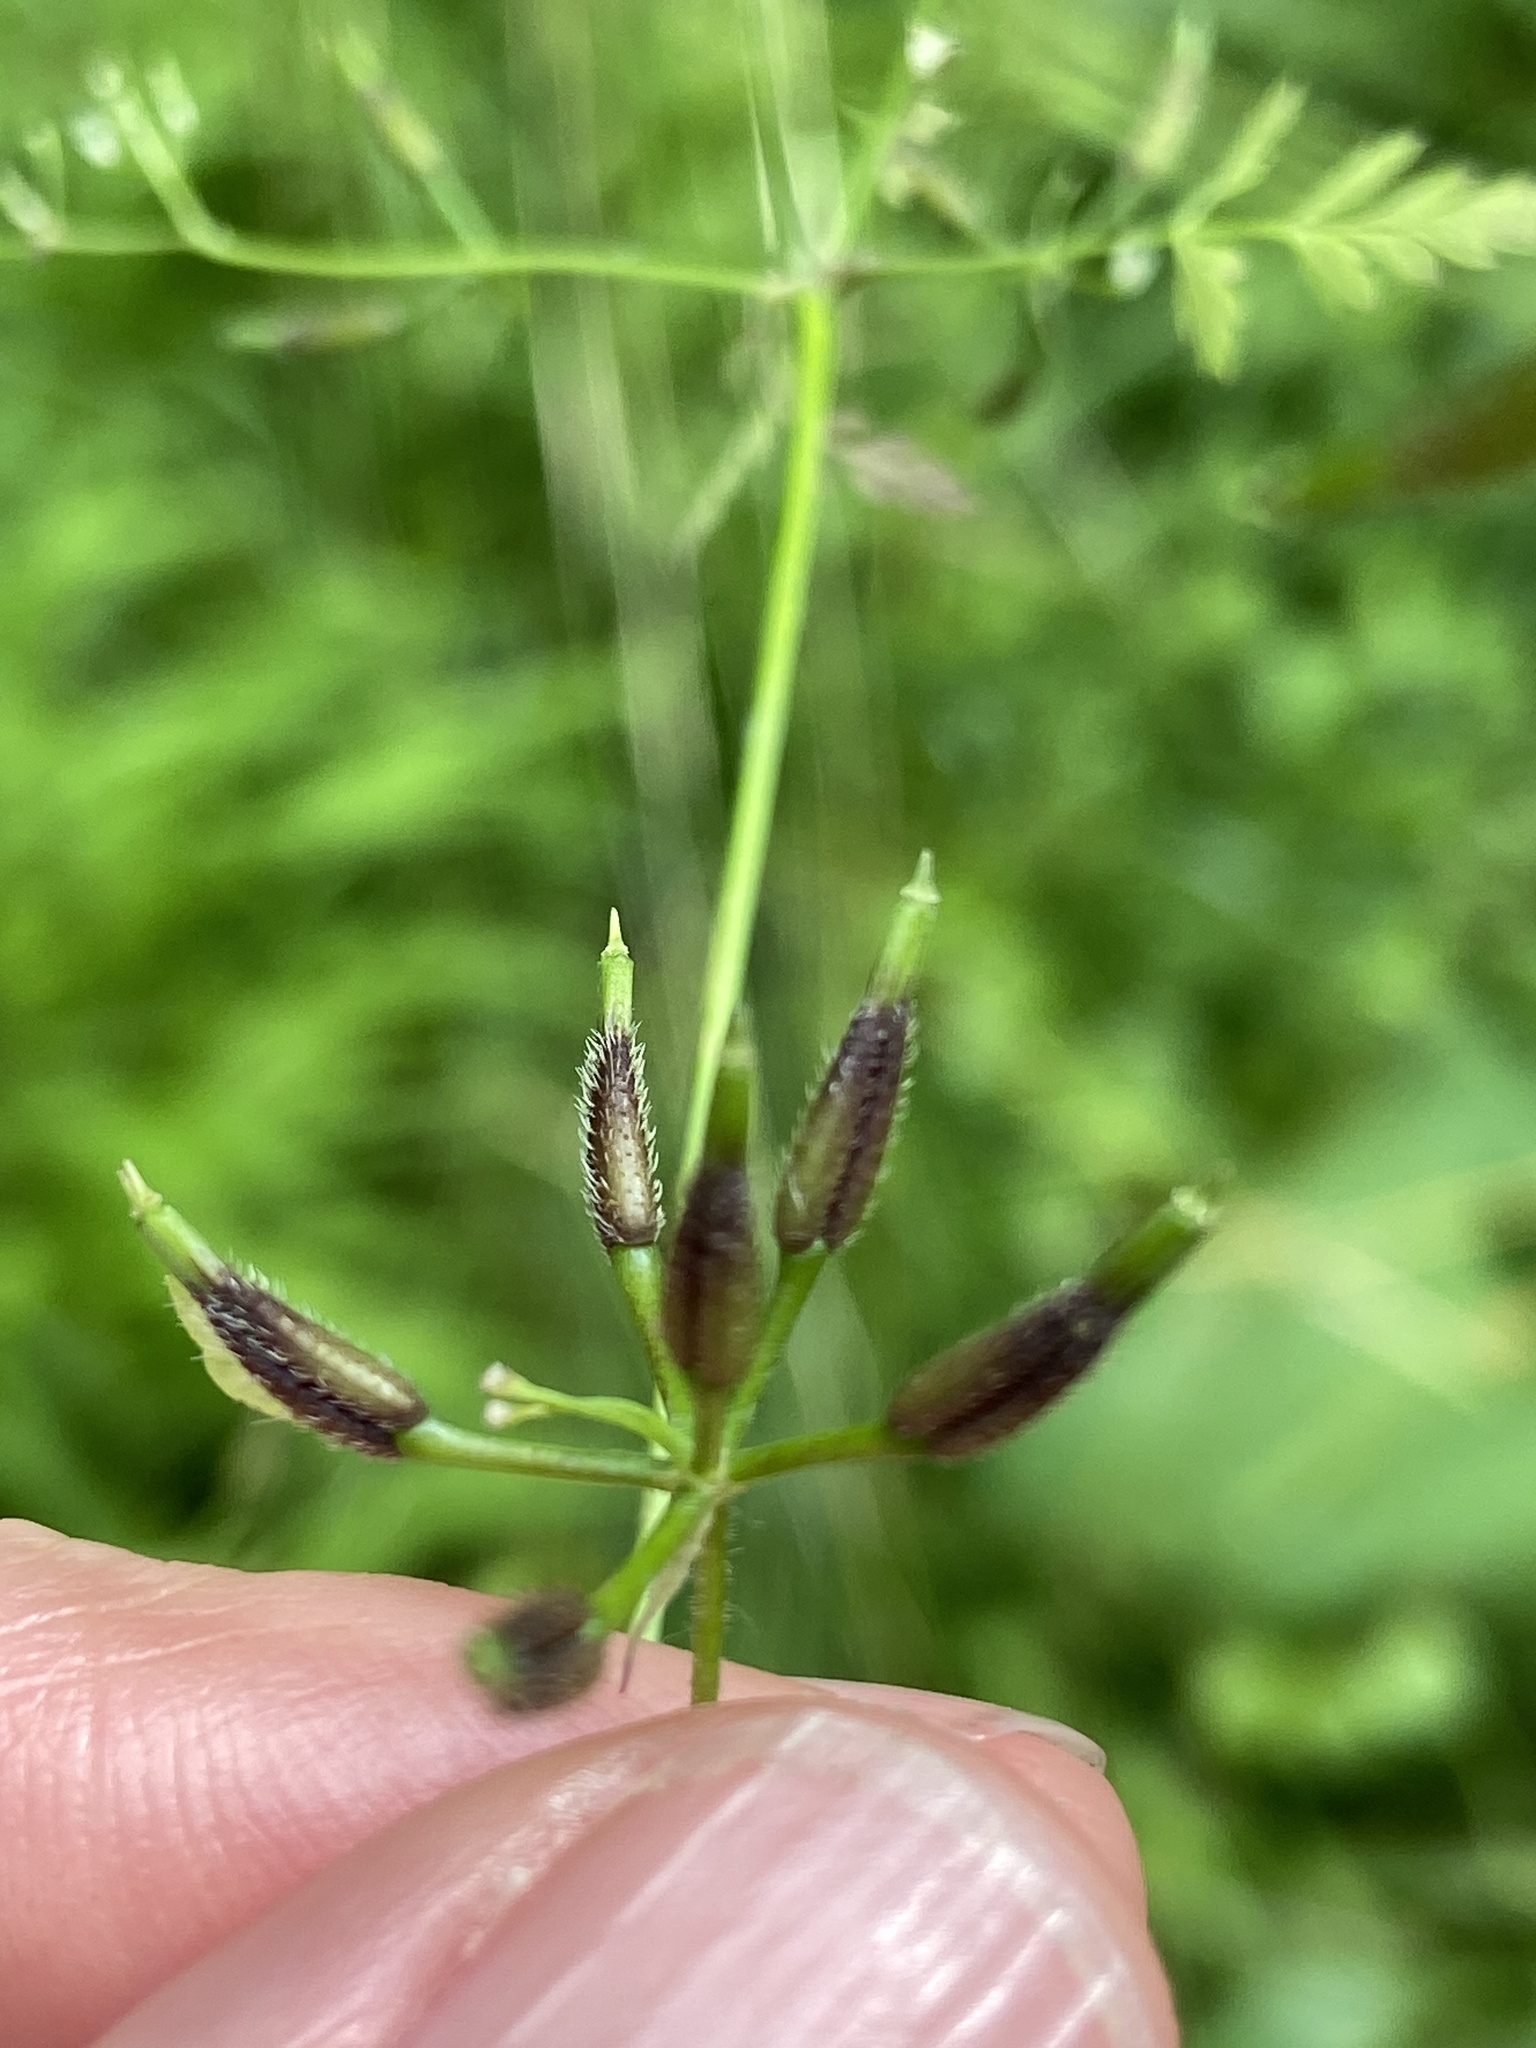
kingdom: Plantae
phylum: Tracheophyta
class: Magnoliopsida
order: Apiales
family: Apiaceae
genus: Anthriscus
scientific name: Anthriscus cerefolium
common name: Garden chervil
